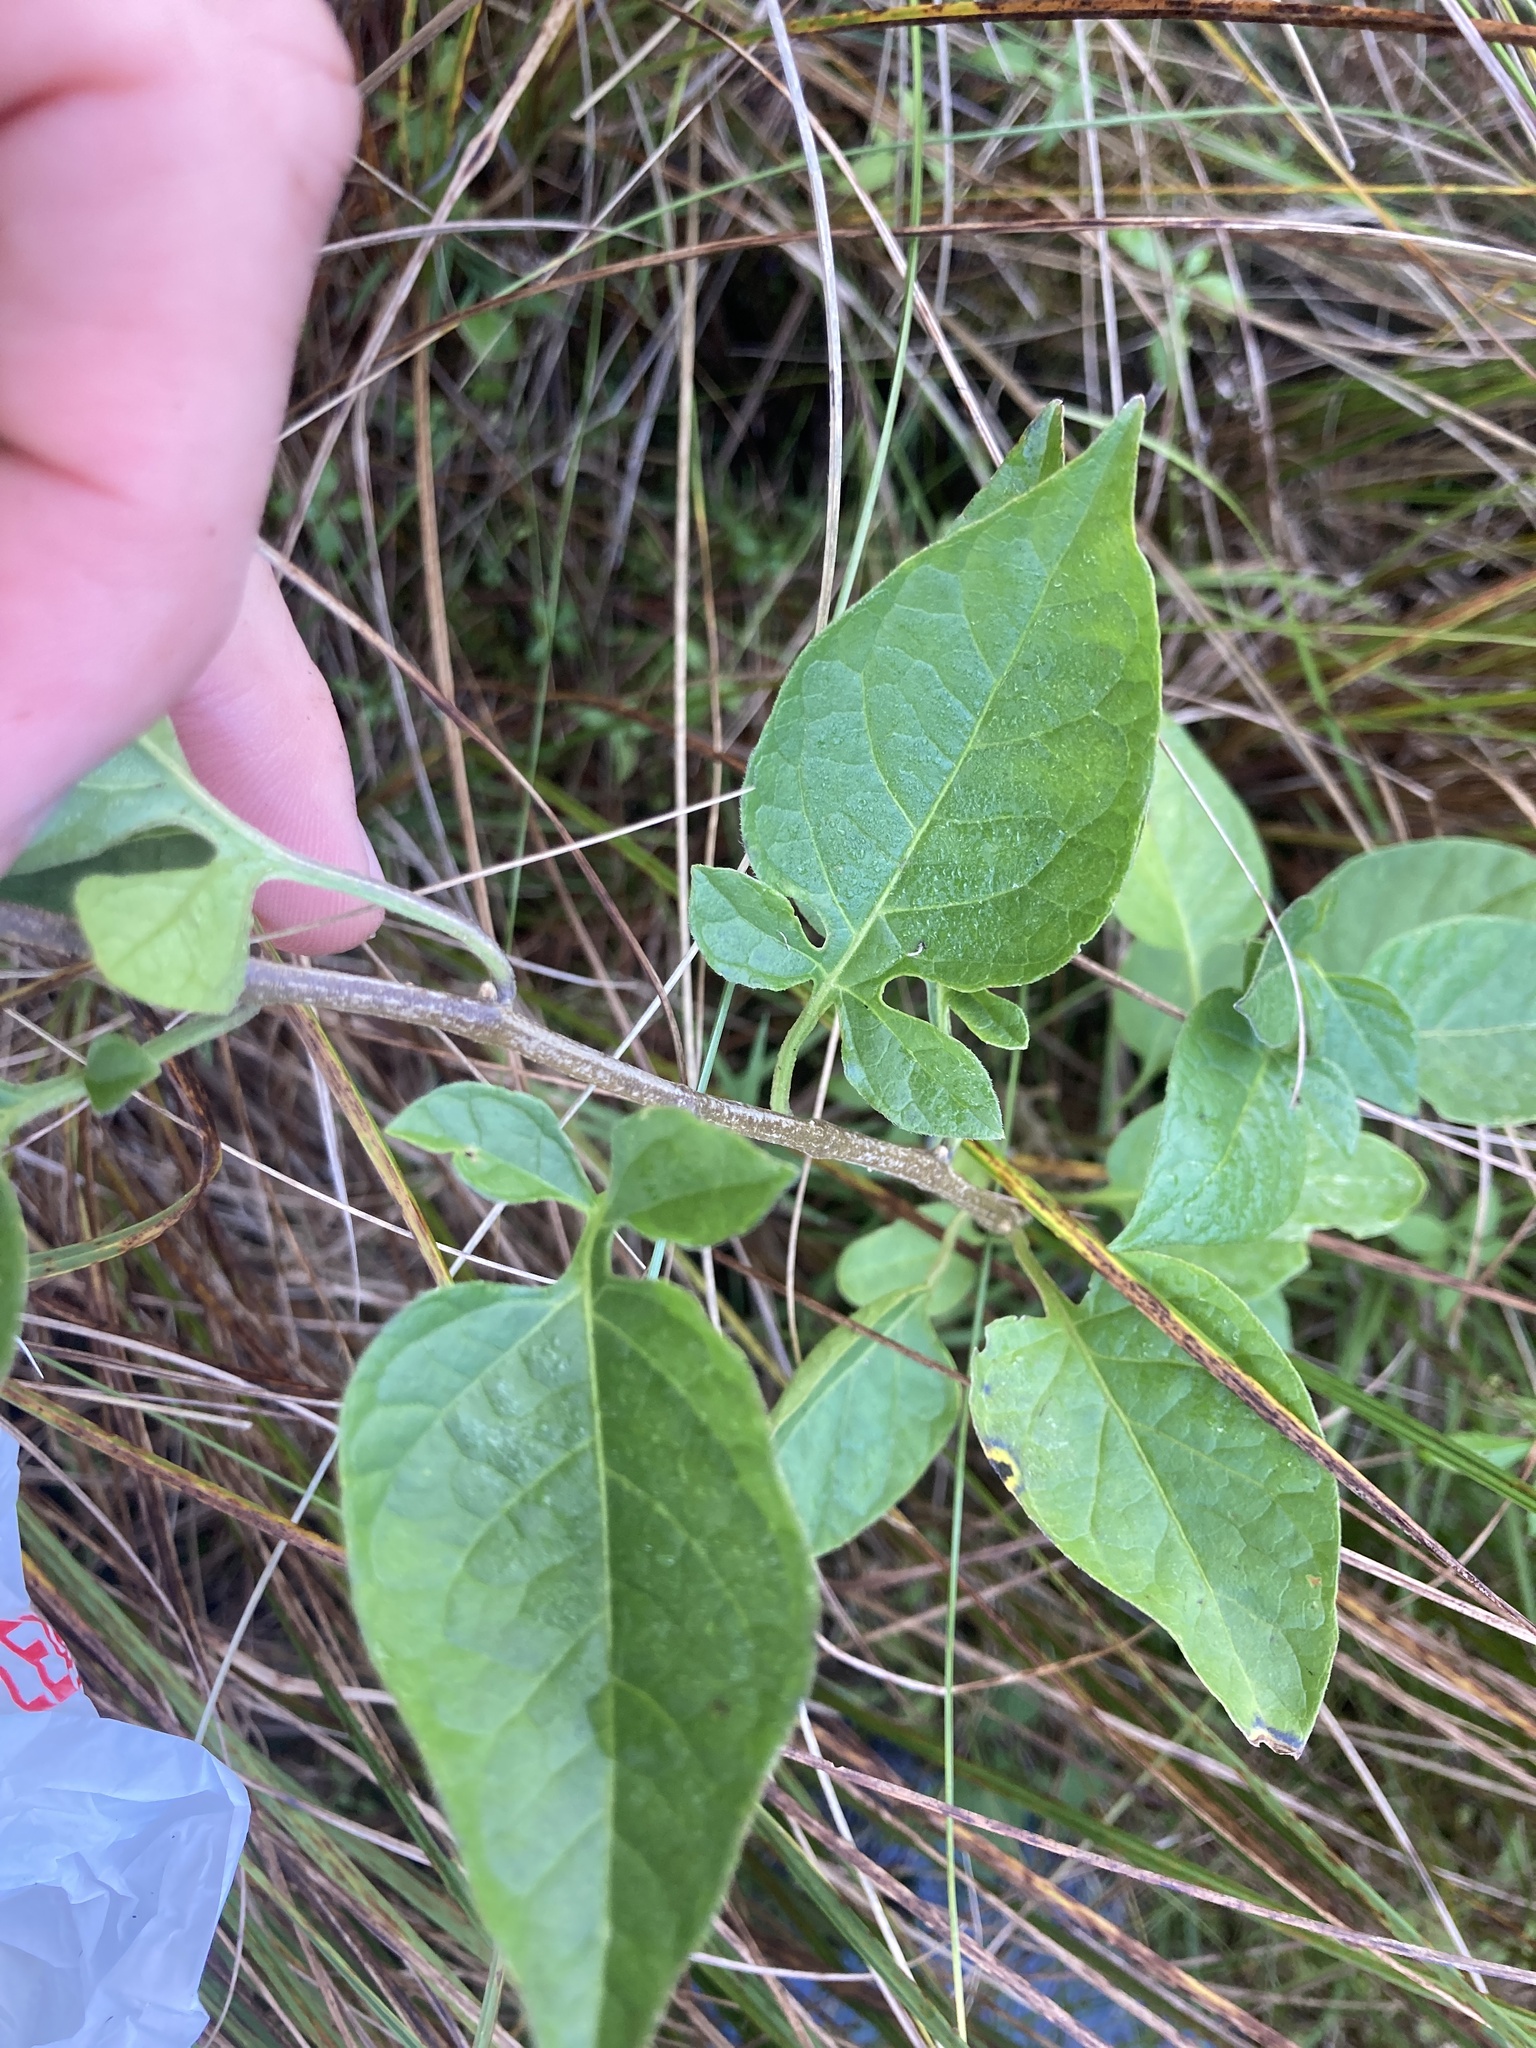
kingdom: Plantae
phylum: Tracheophyta
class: Magnoliopsida
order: Solanales
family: Solanaceae
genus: Solanum
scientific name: Solanum dulcamara
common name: Climbing nightshade
